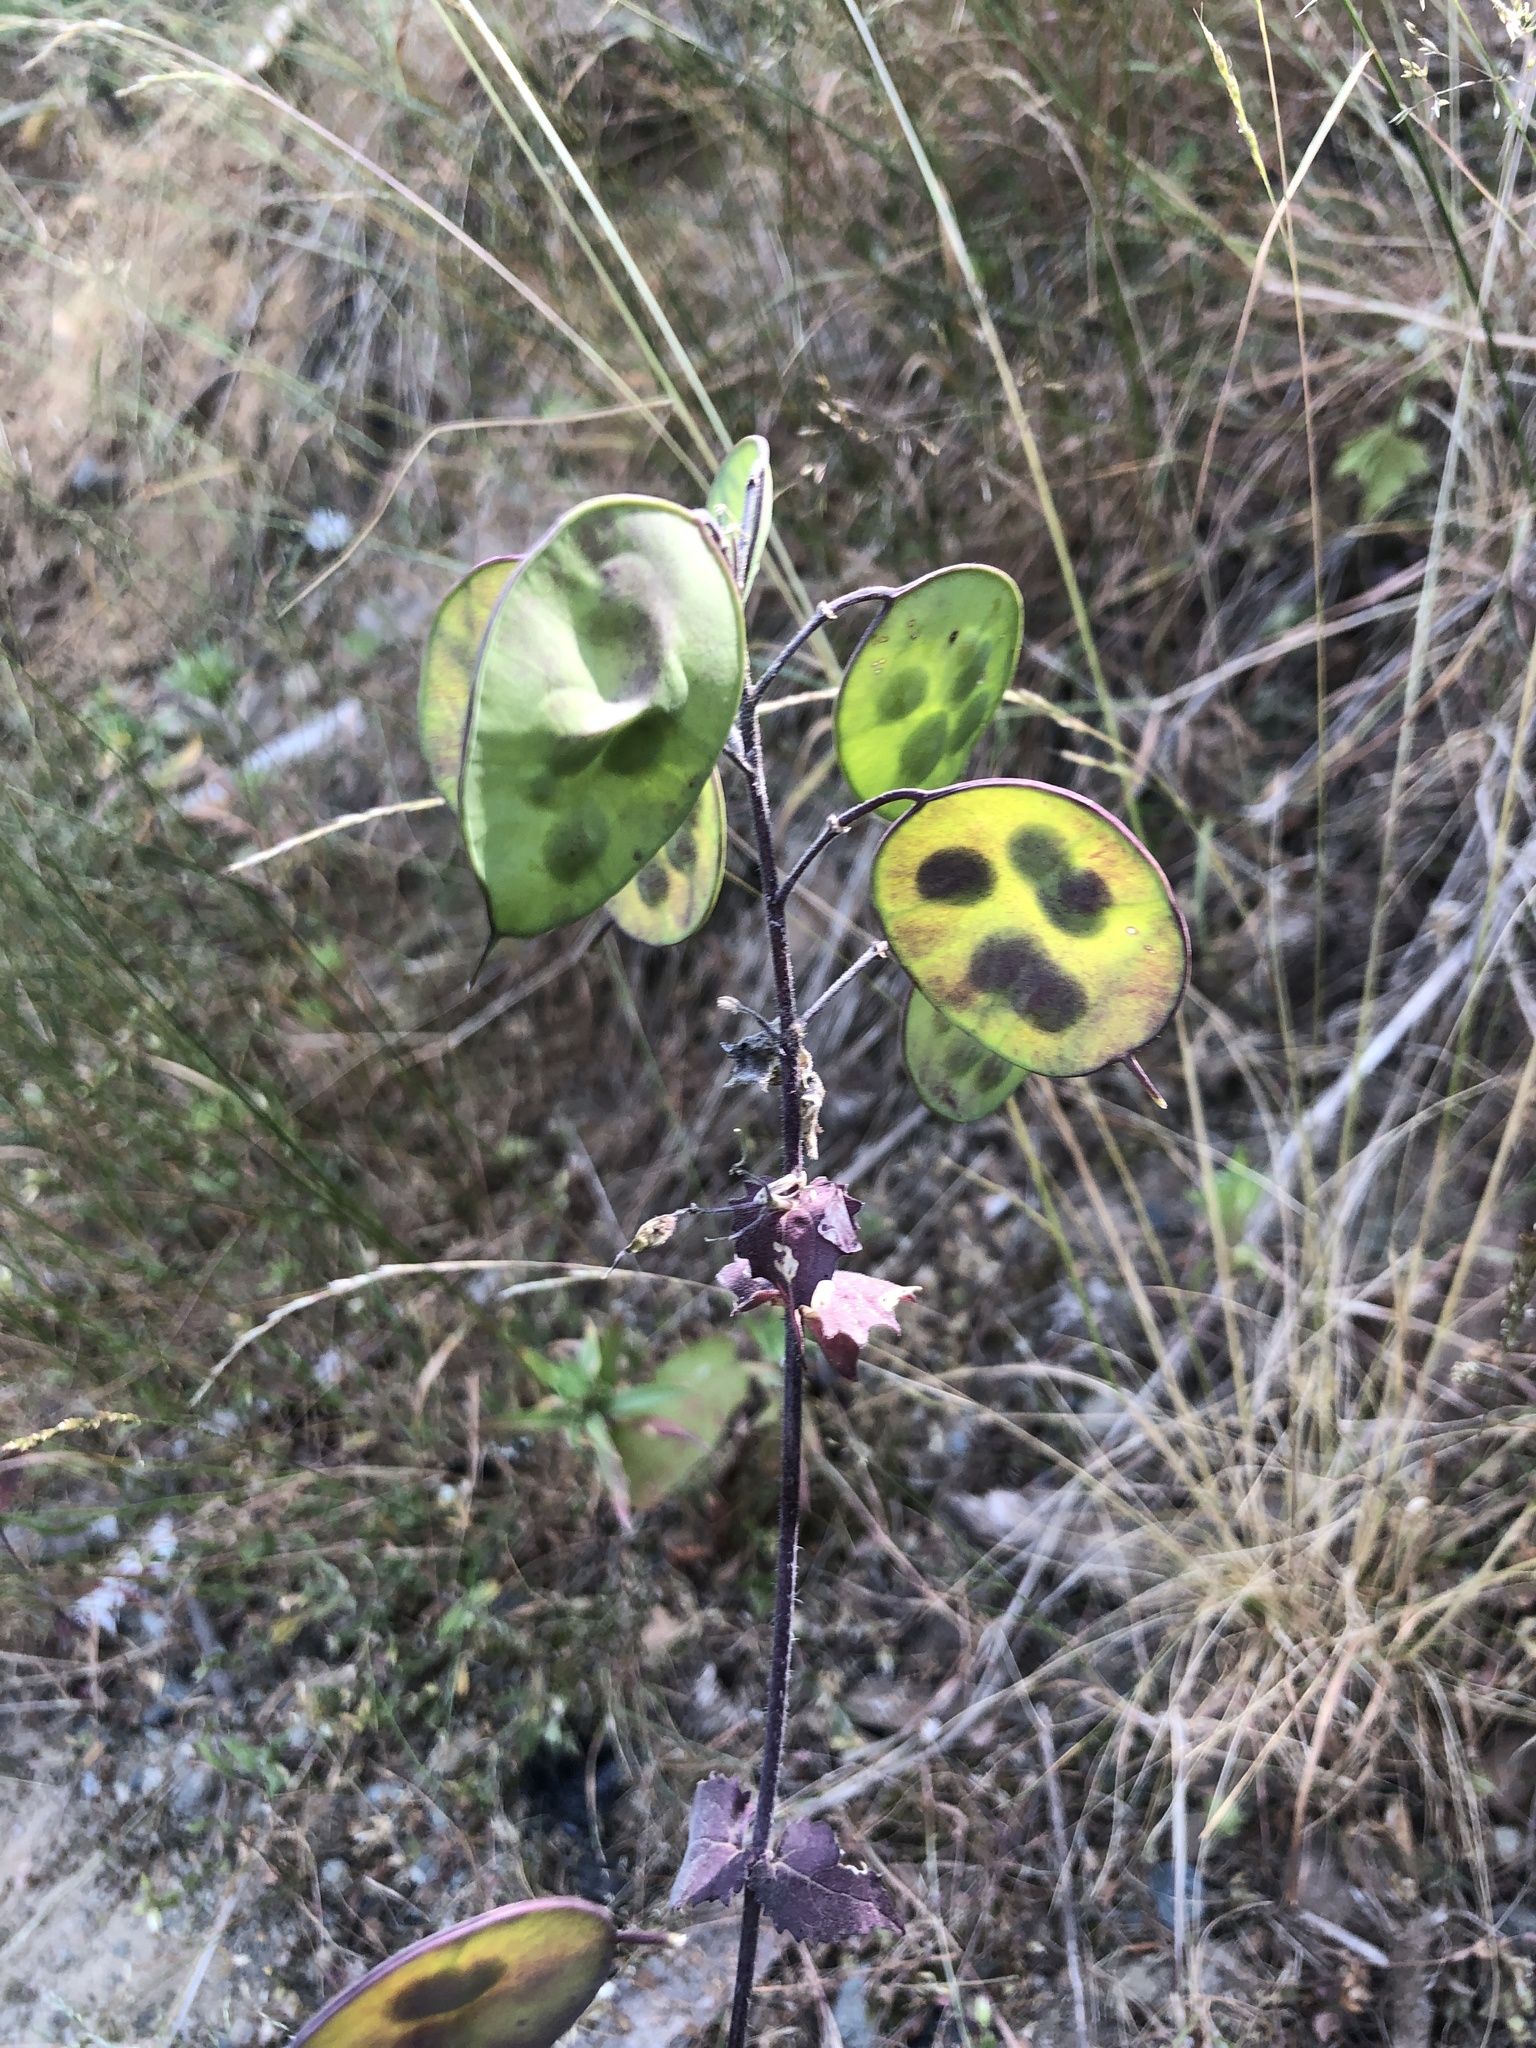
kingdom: Plantae
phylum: Tracheophyta
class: Magnoliopsida
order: Brassicales
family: Brassicaceae
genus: Lunaria
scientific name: Lunaria annua
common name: Honesty
